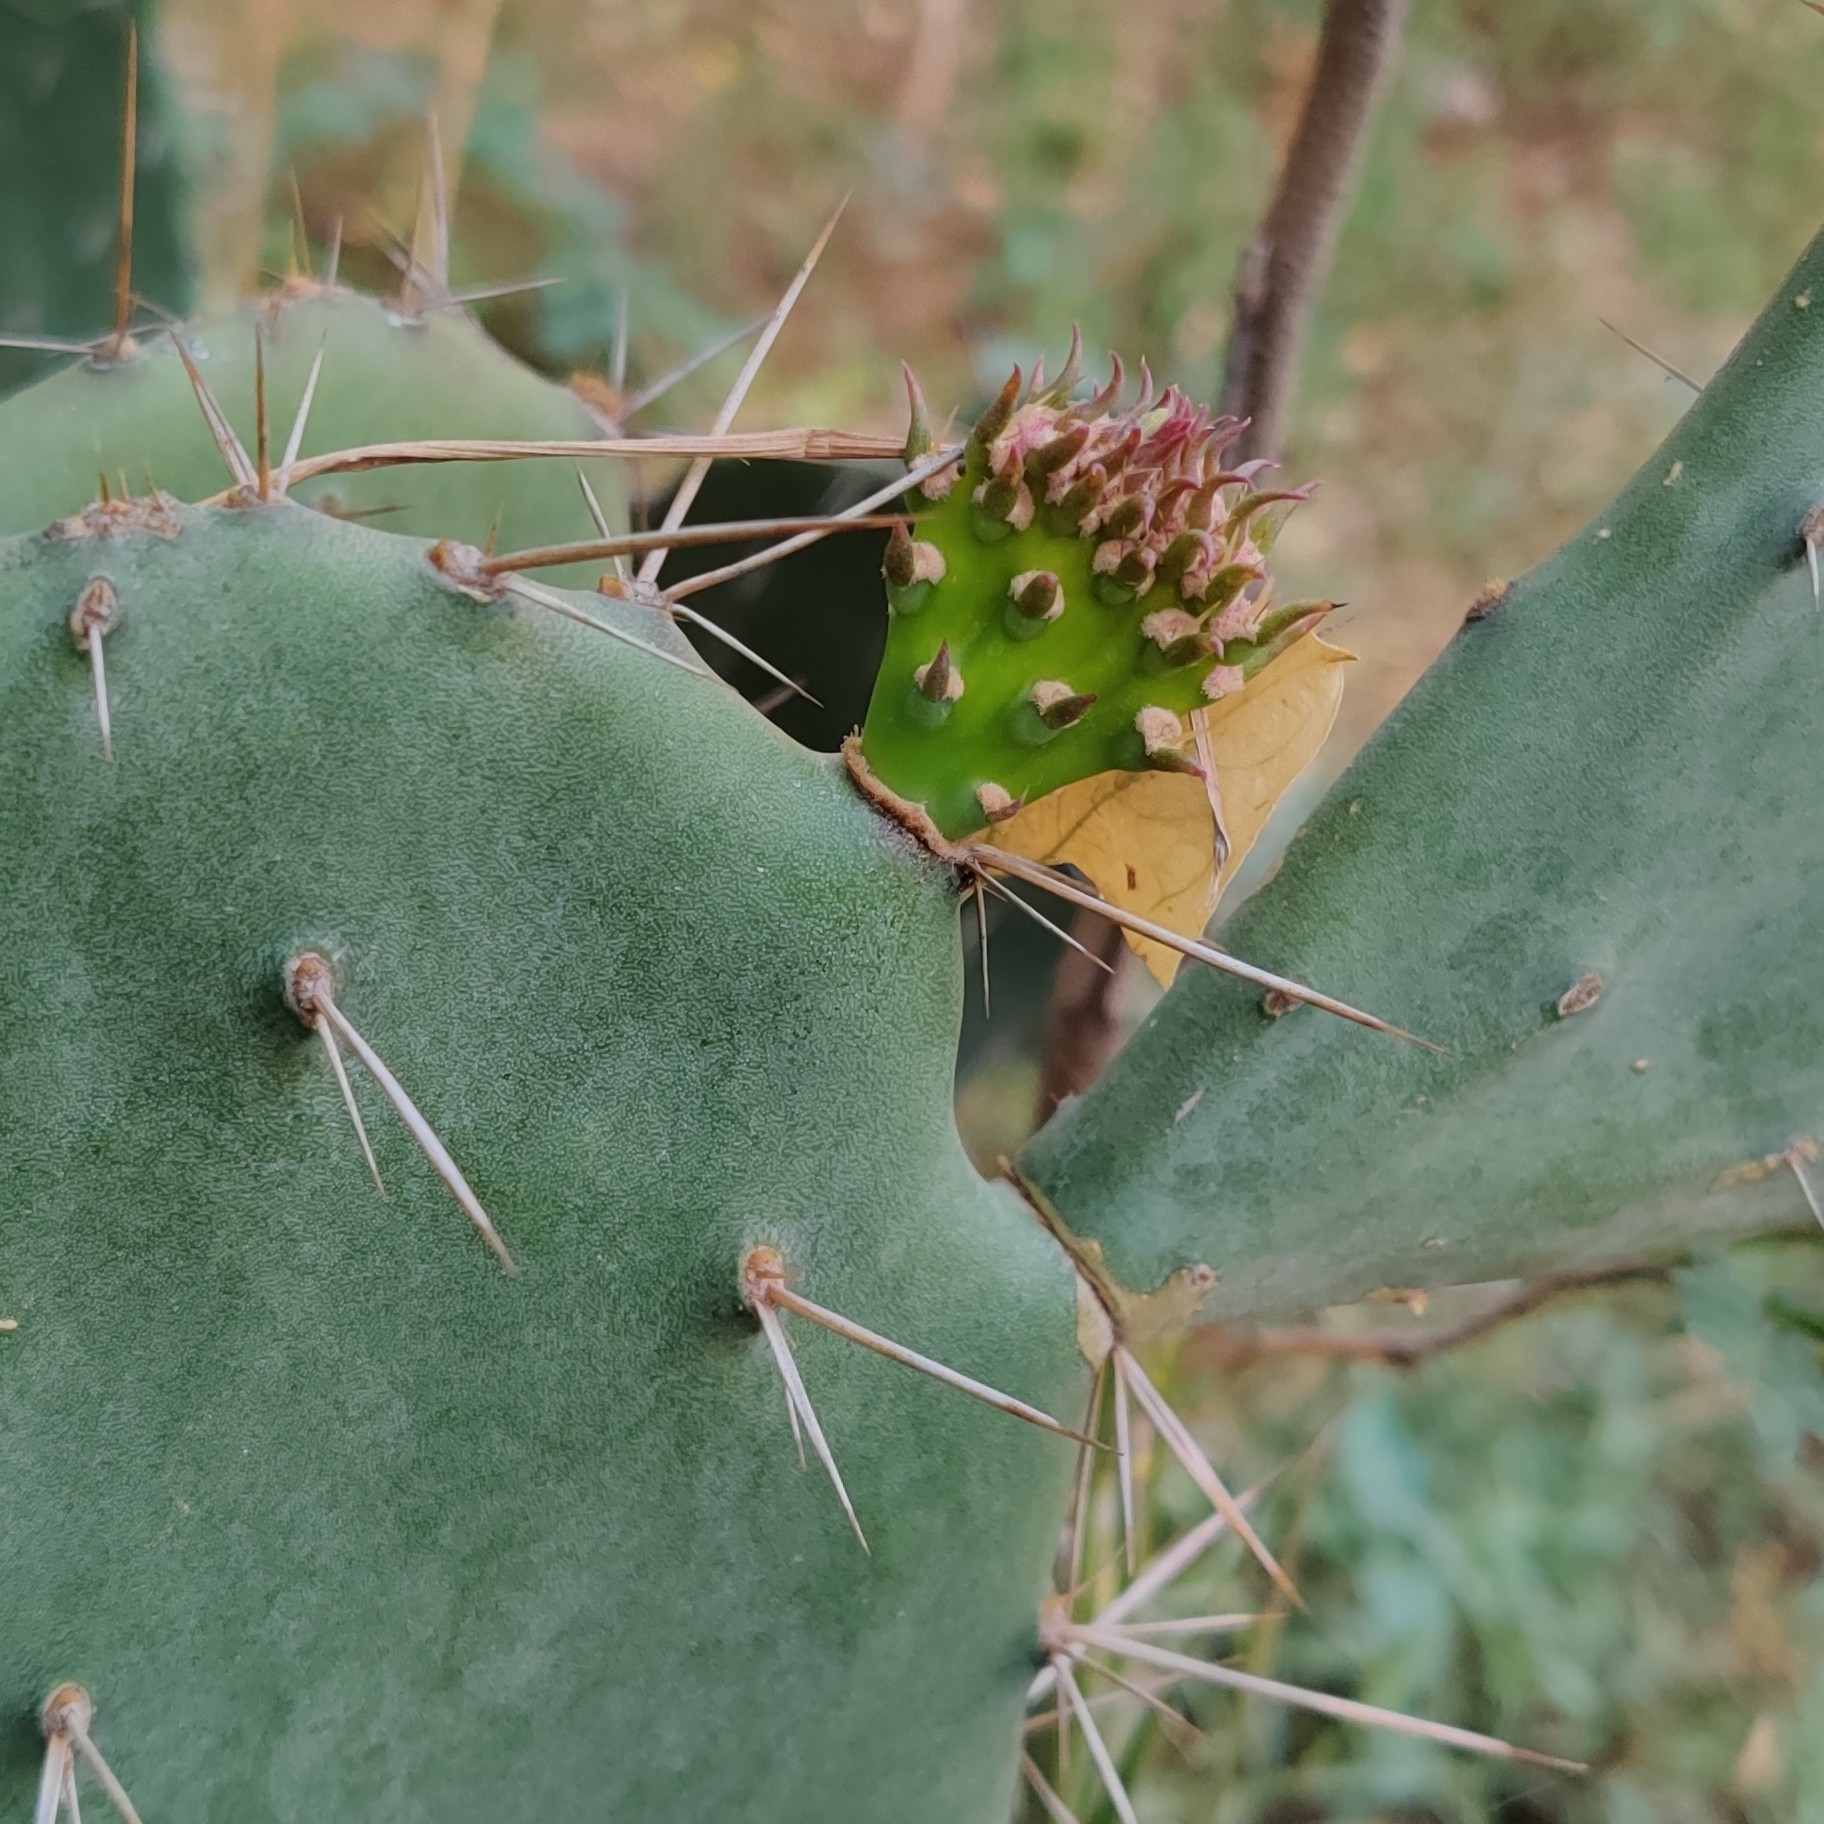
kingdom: Plantae
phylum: Tracheophyta
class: Magnoliopsida
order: Caryophyllales
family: Cactaceae
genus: Opuntia
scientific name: Opuntia ficus-indica
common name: Barbary fig
